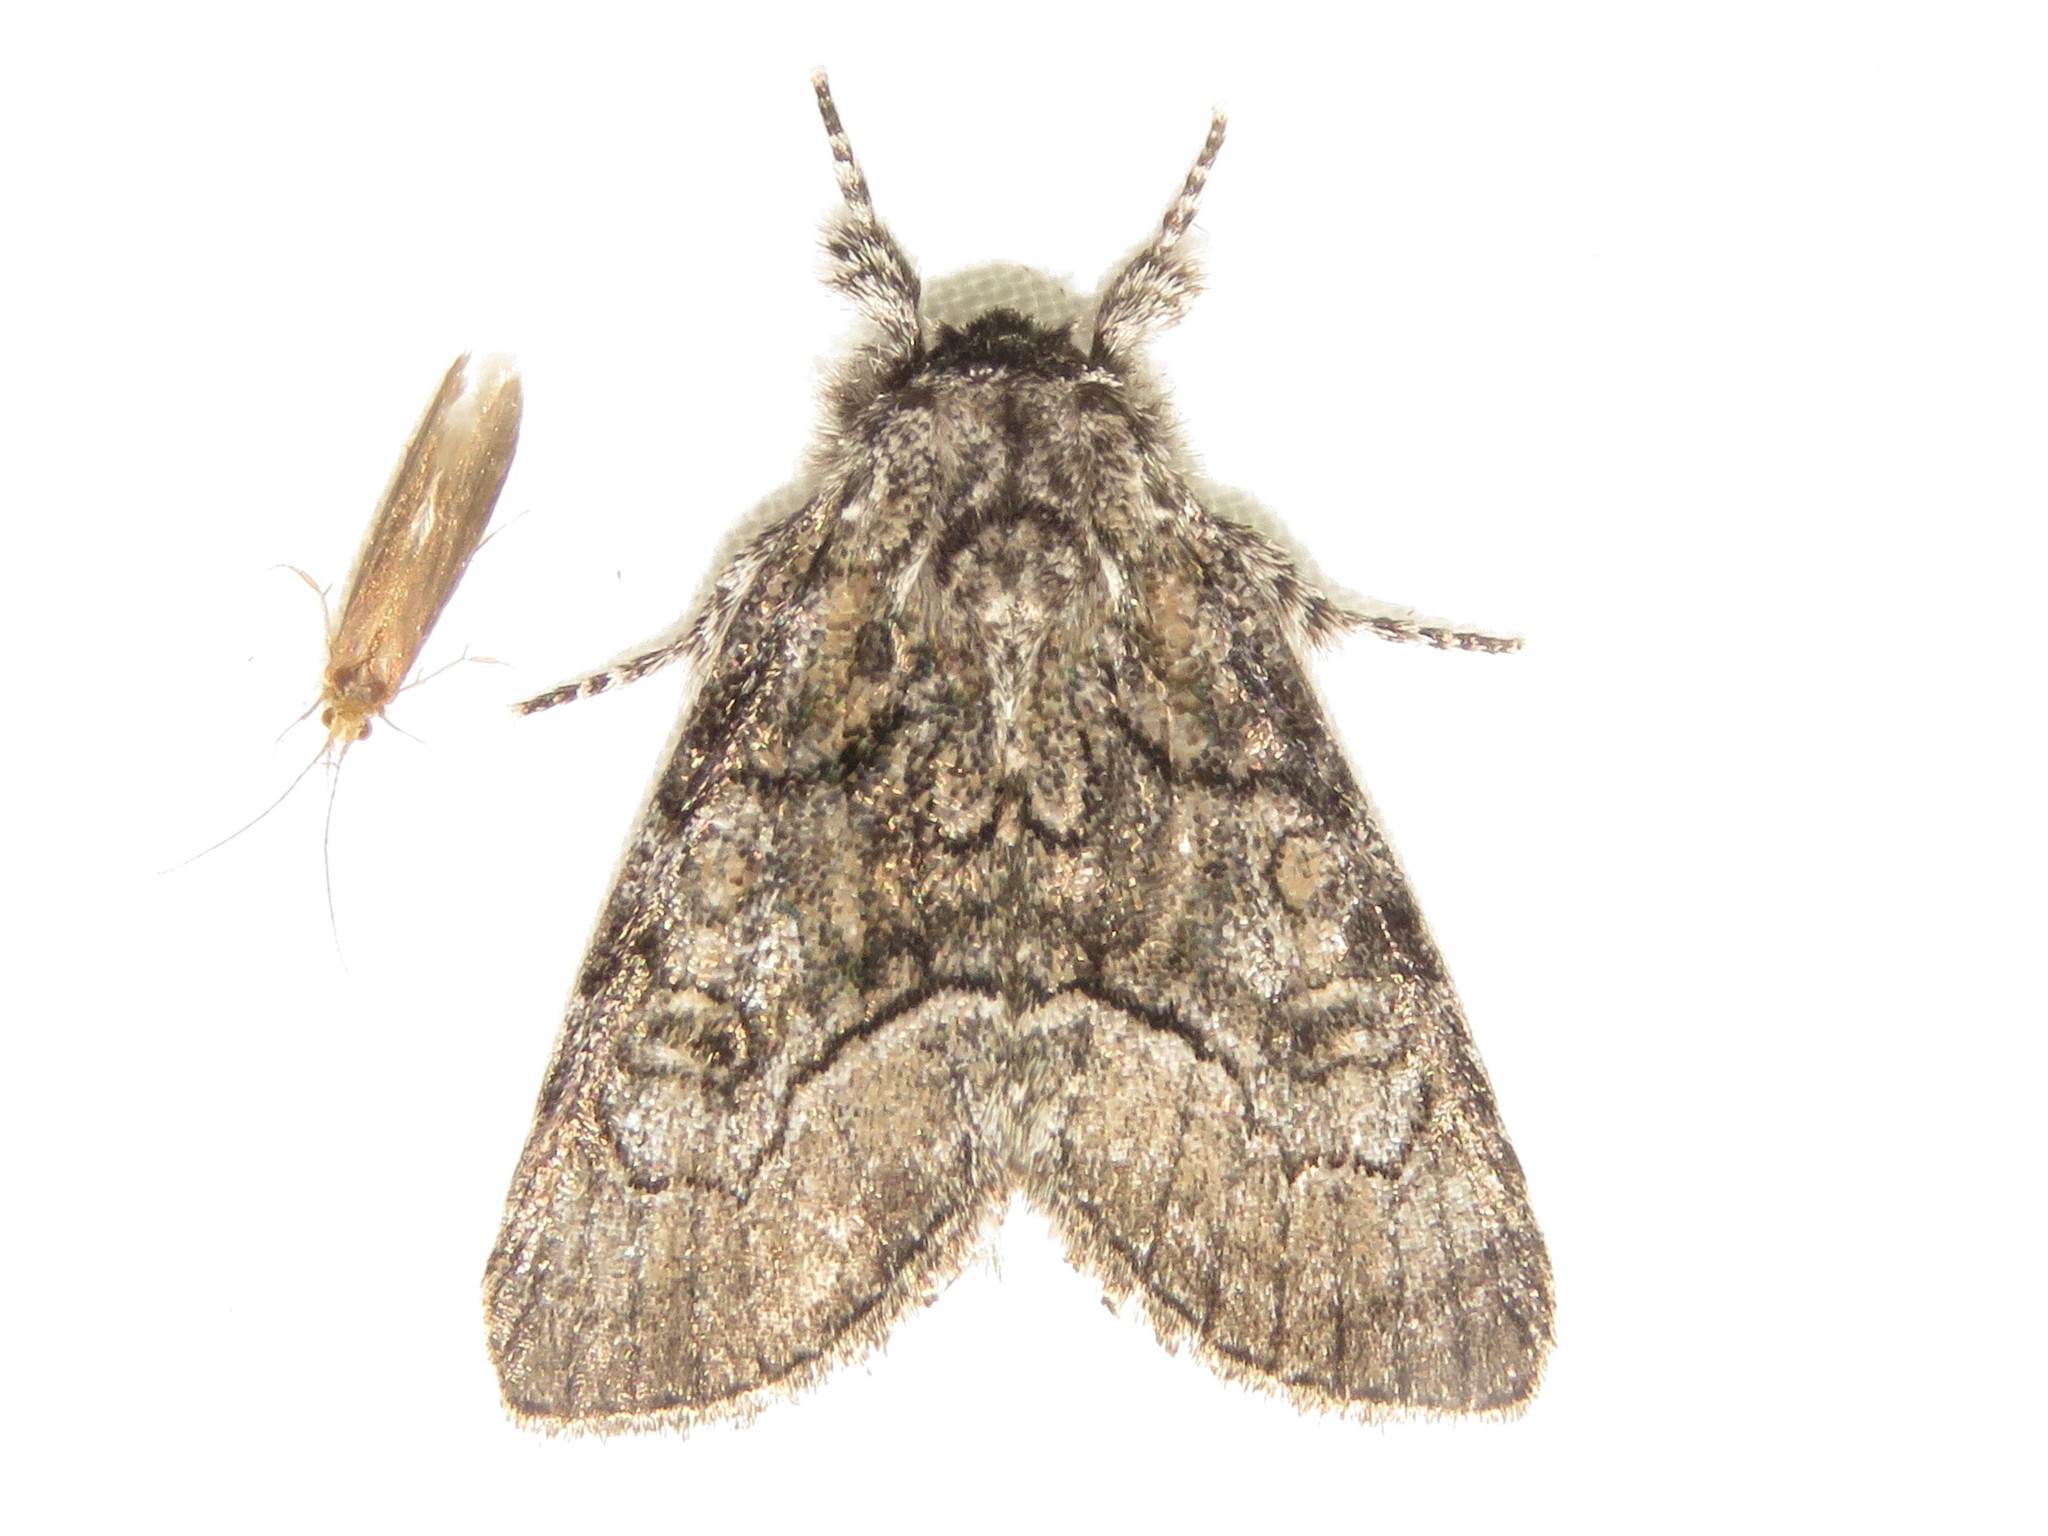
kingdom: Animalia
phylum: Arthropoda
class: Insecta
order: Lepidoptera
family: Noctuidae
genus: Raphia
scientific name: Raphia frater
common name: Brother
